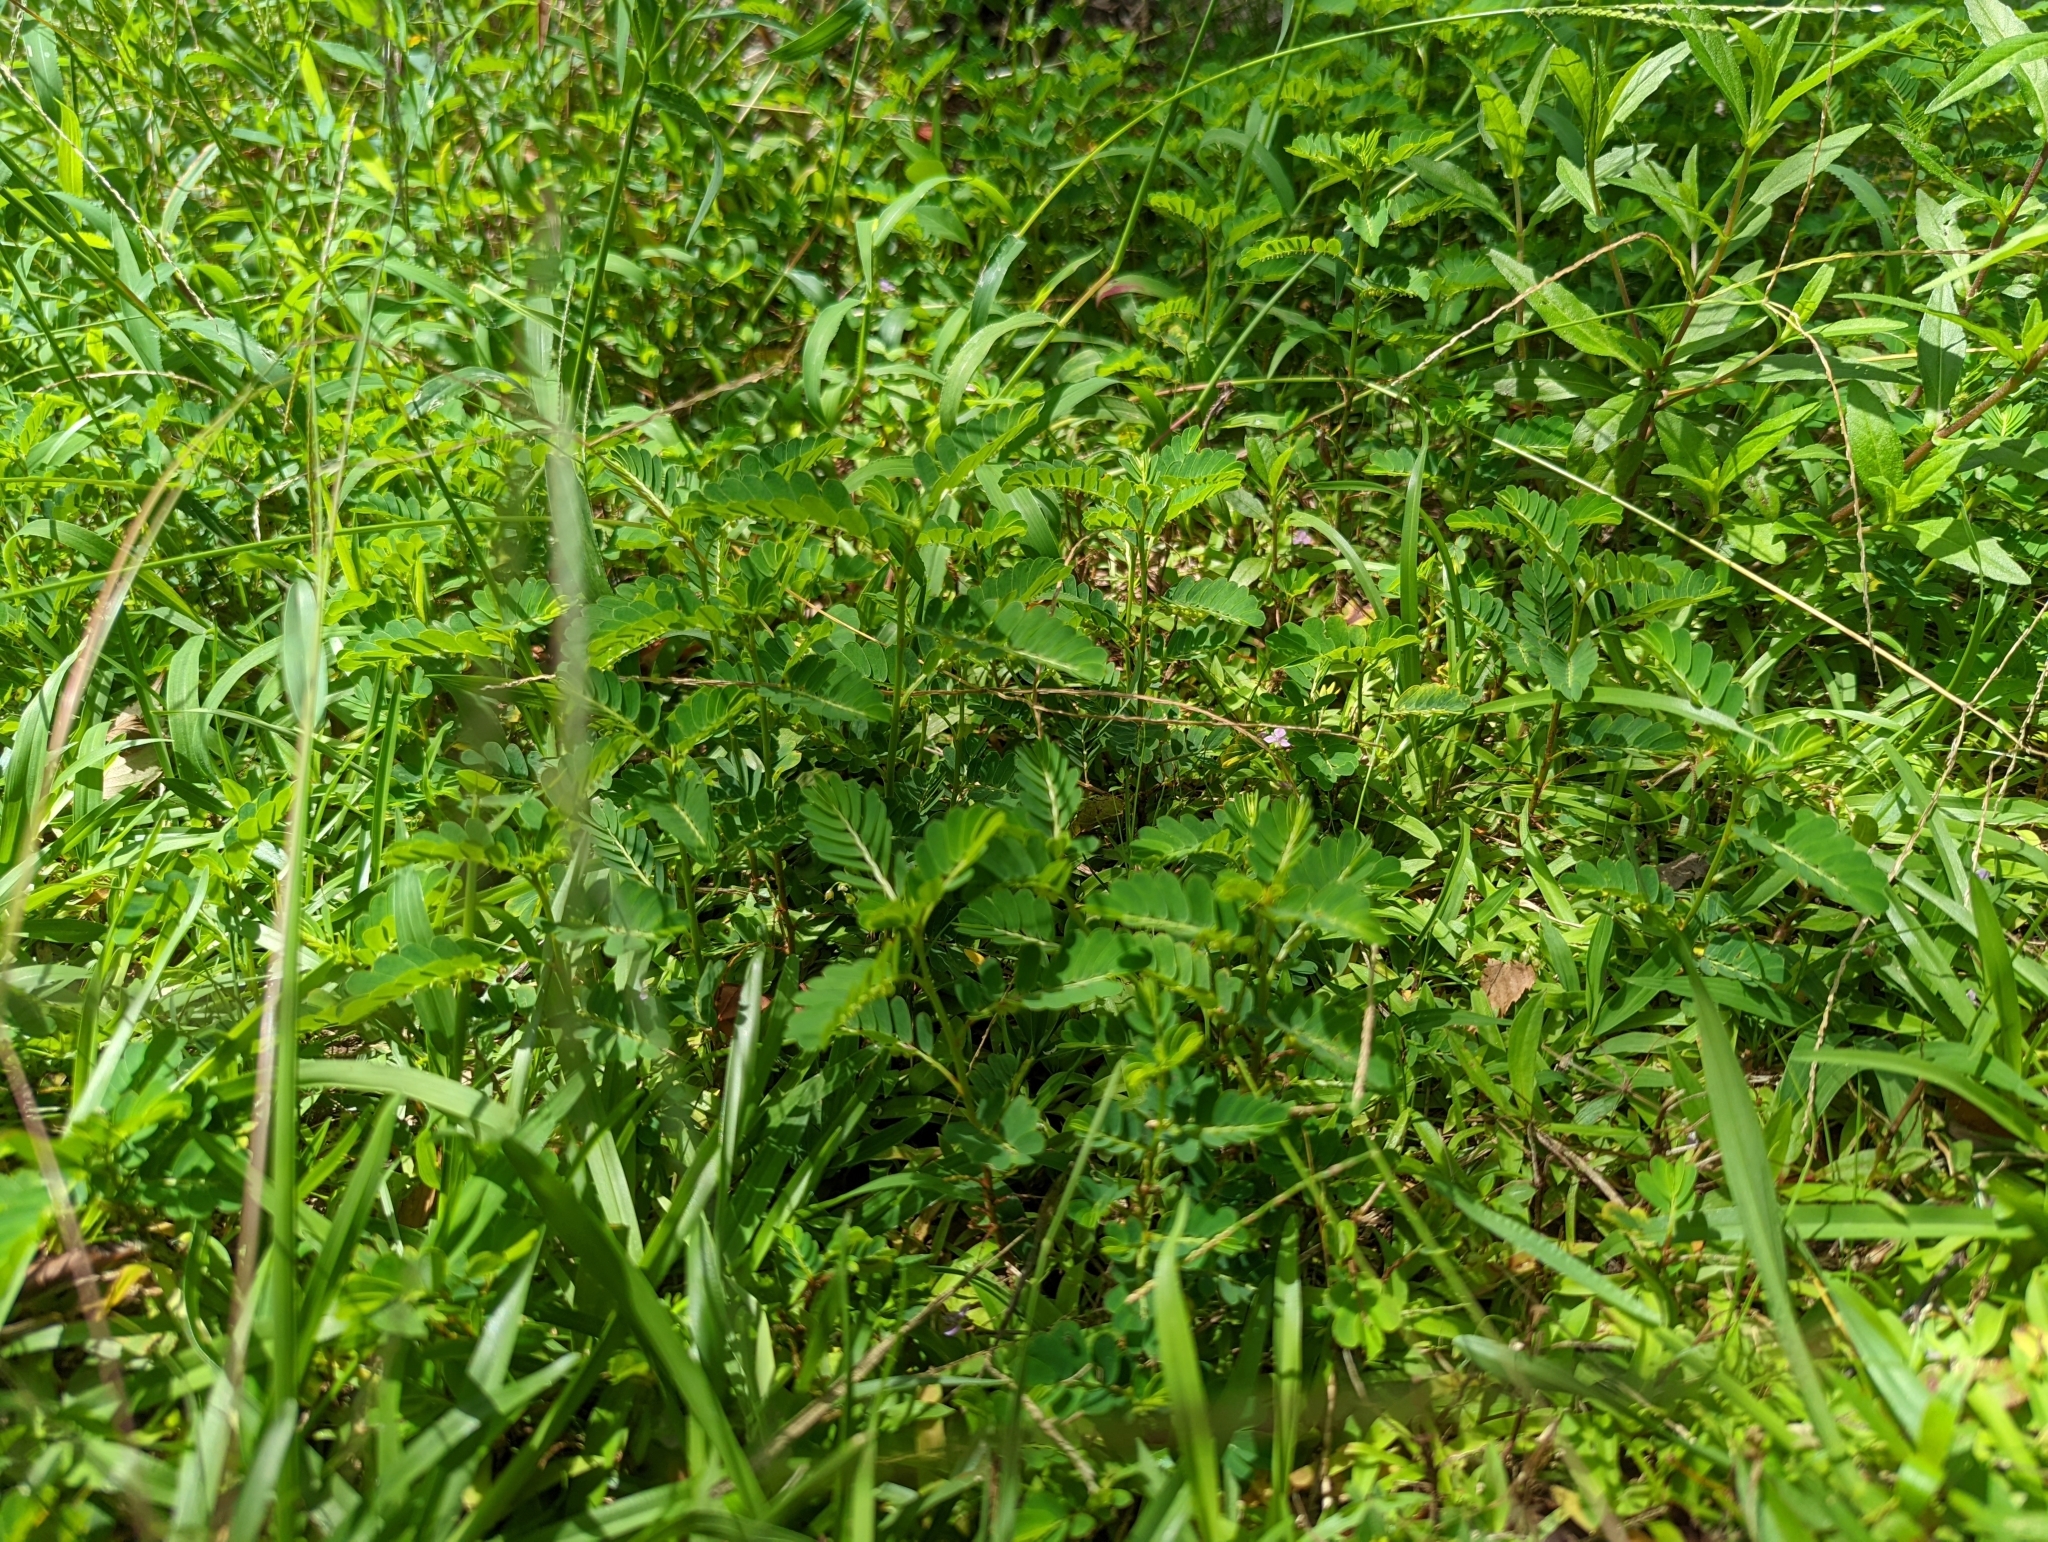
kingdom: Plantae
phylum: Tracheophyta
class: Magnoliopsida
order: Malpighiales
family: Phyllanthaceae
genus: Phyllanthus
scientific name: Phyllanthus urinaria
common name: Chamber bitter
